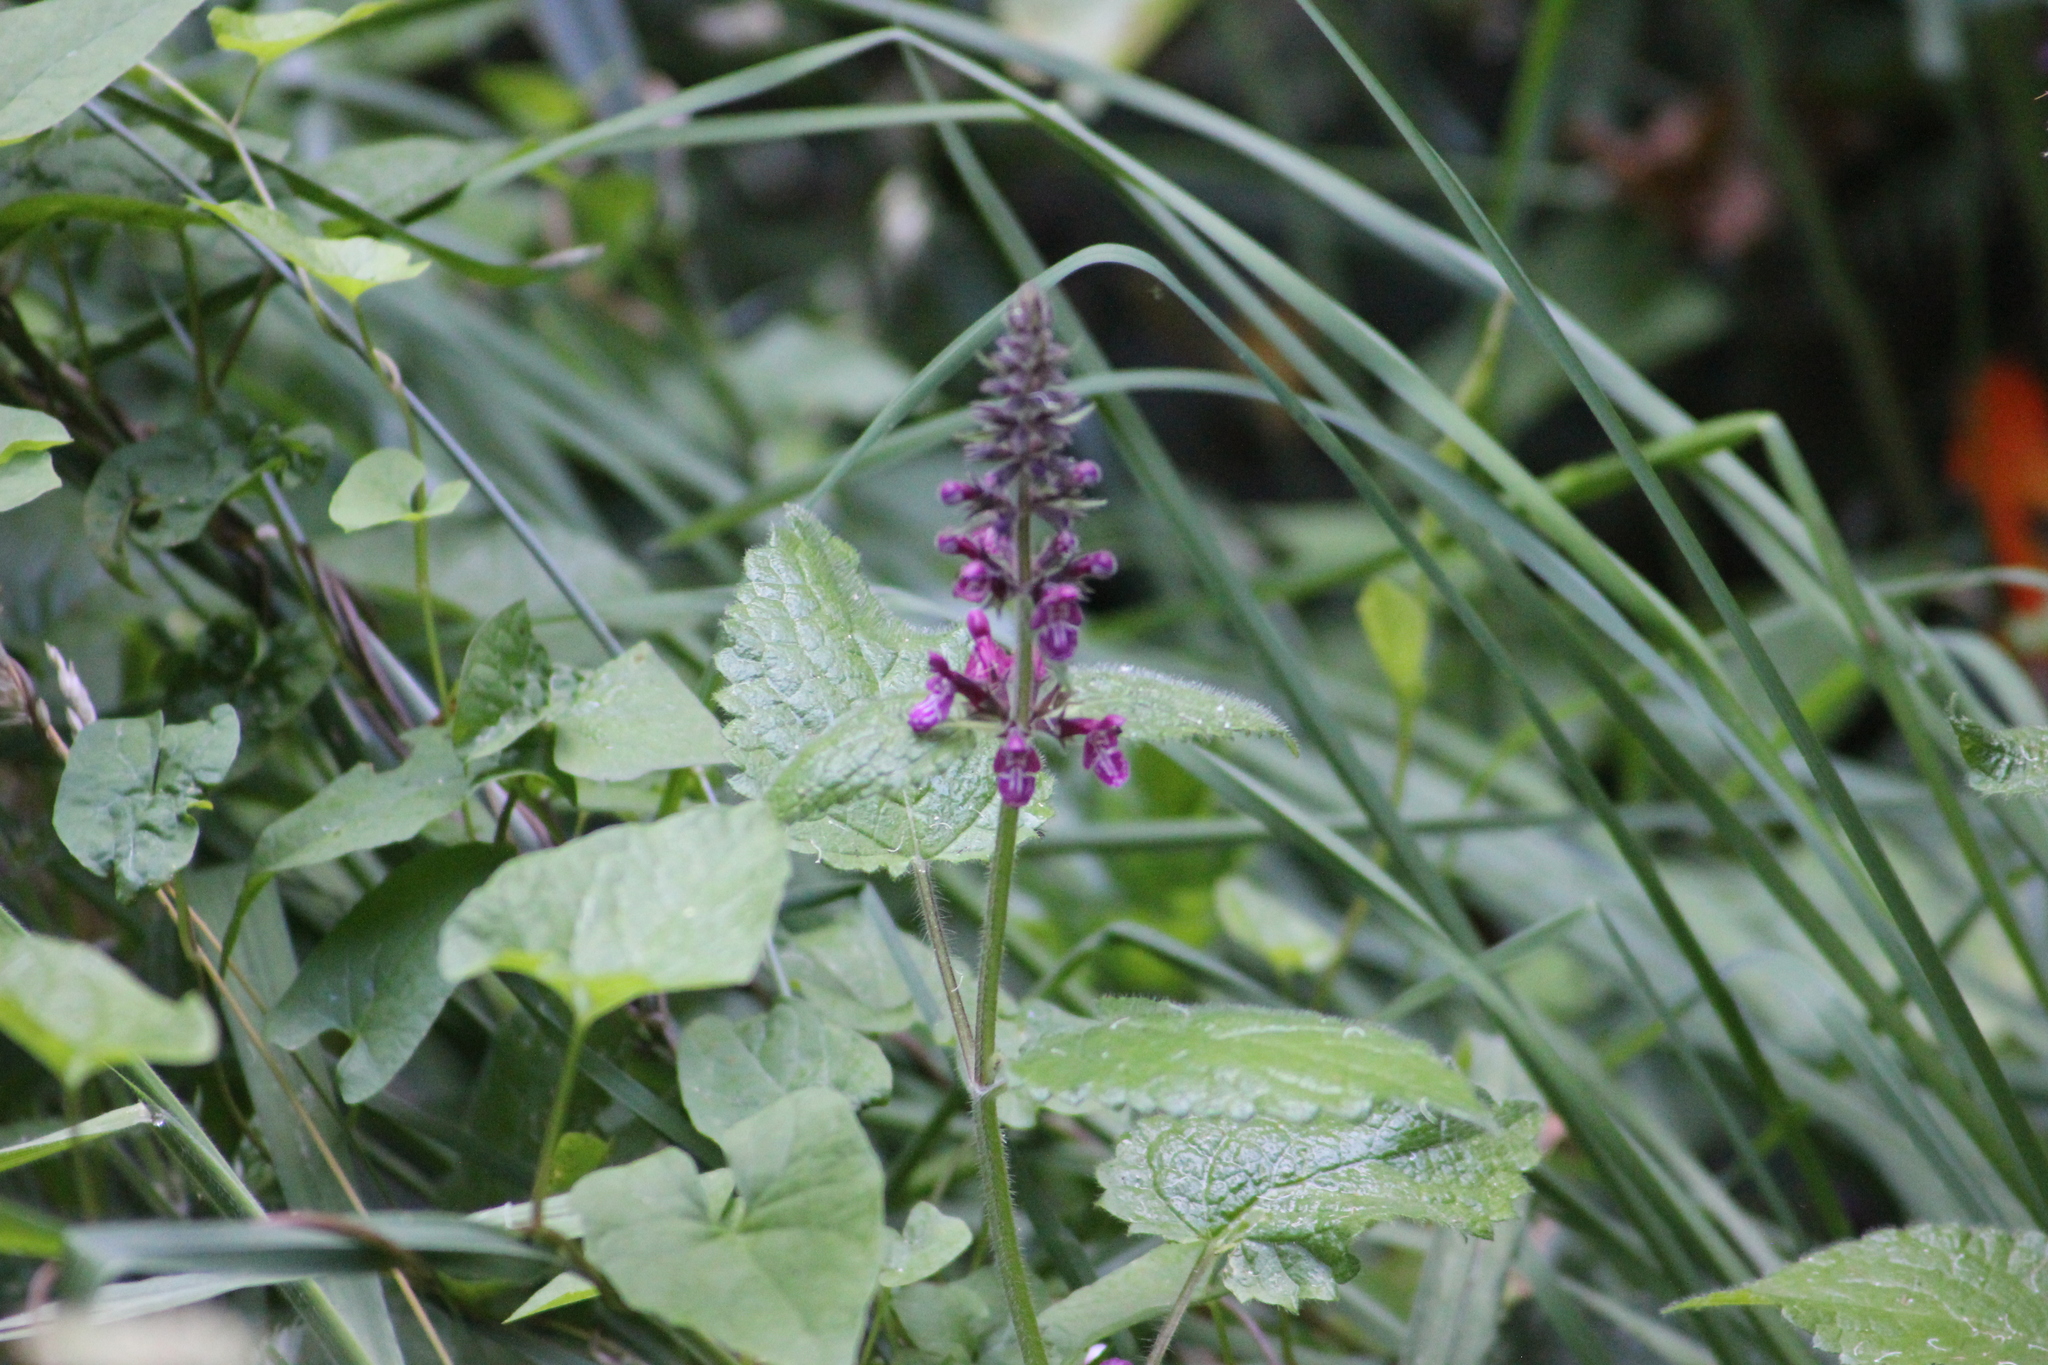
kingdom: Plantae
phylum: Tracheophyta
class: Magnoliopsida
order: Lamiales
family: Lamiaceae
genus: Stachys
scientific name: Stachys sylvatica
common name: Hedge woundwort
